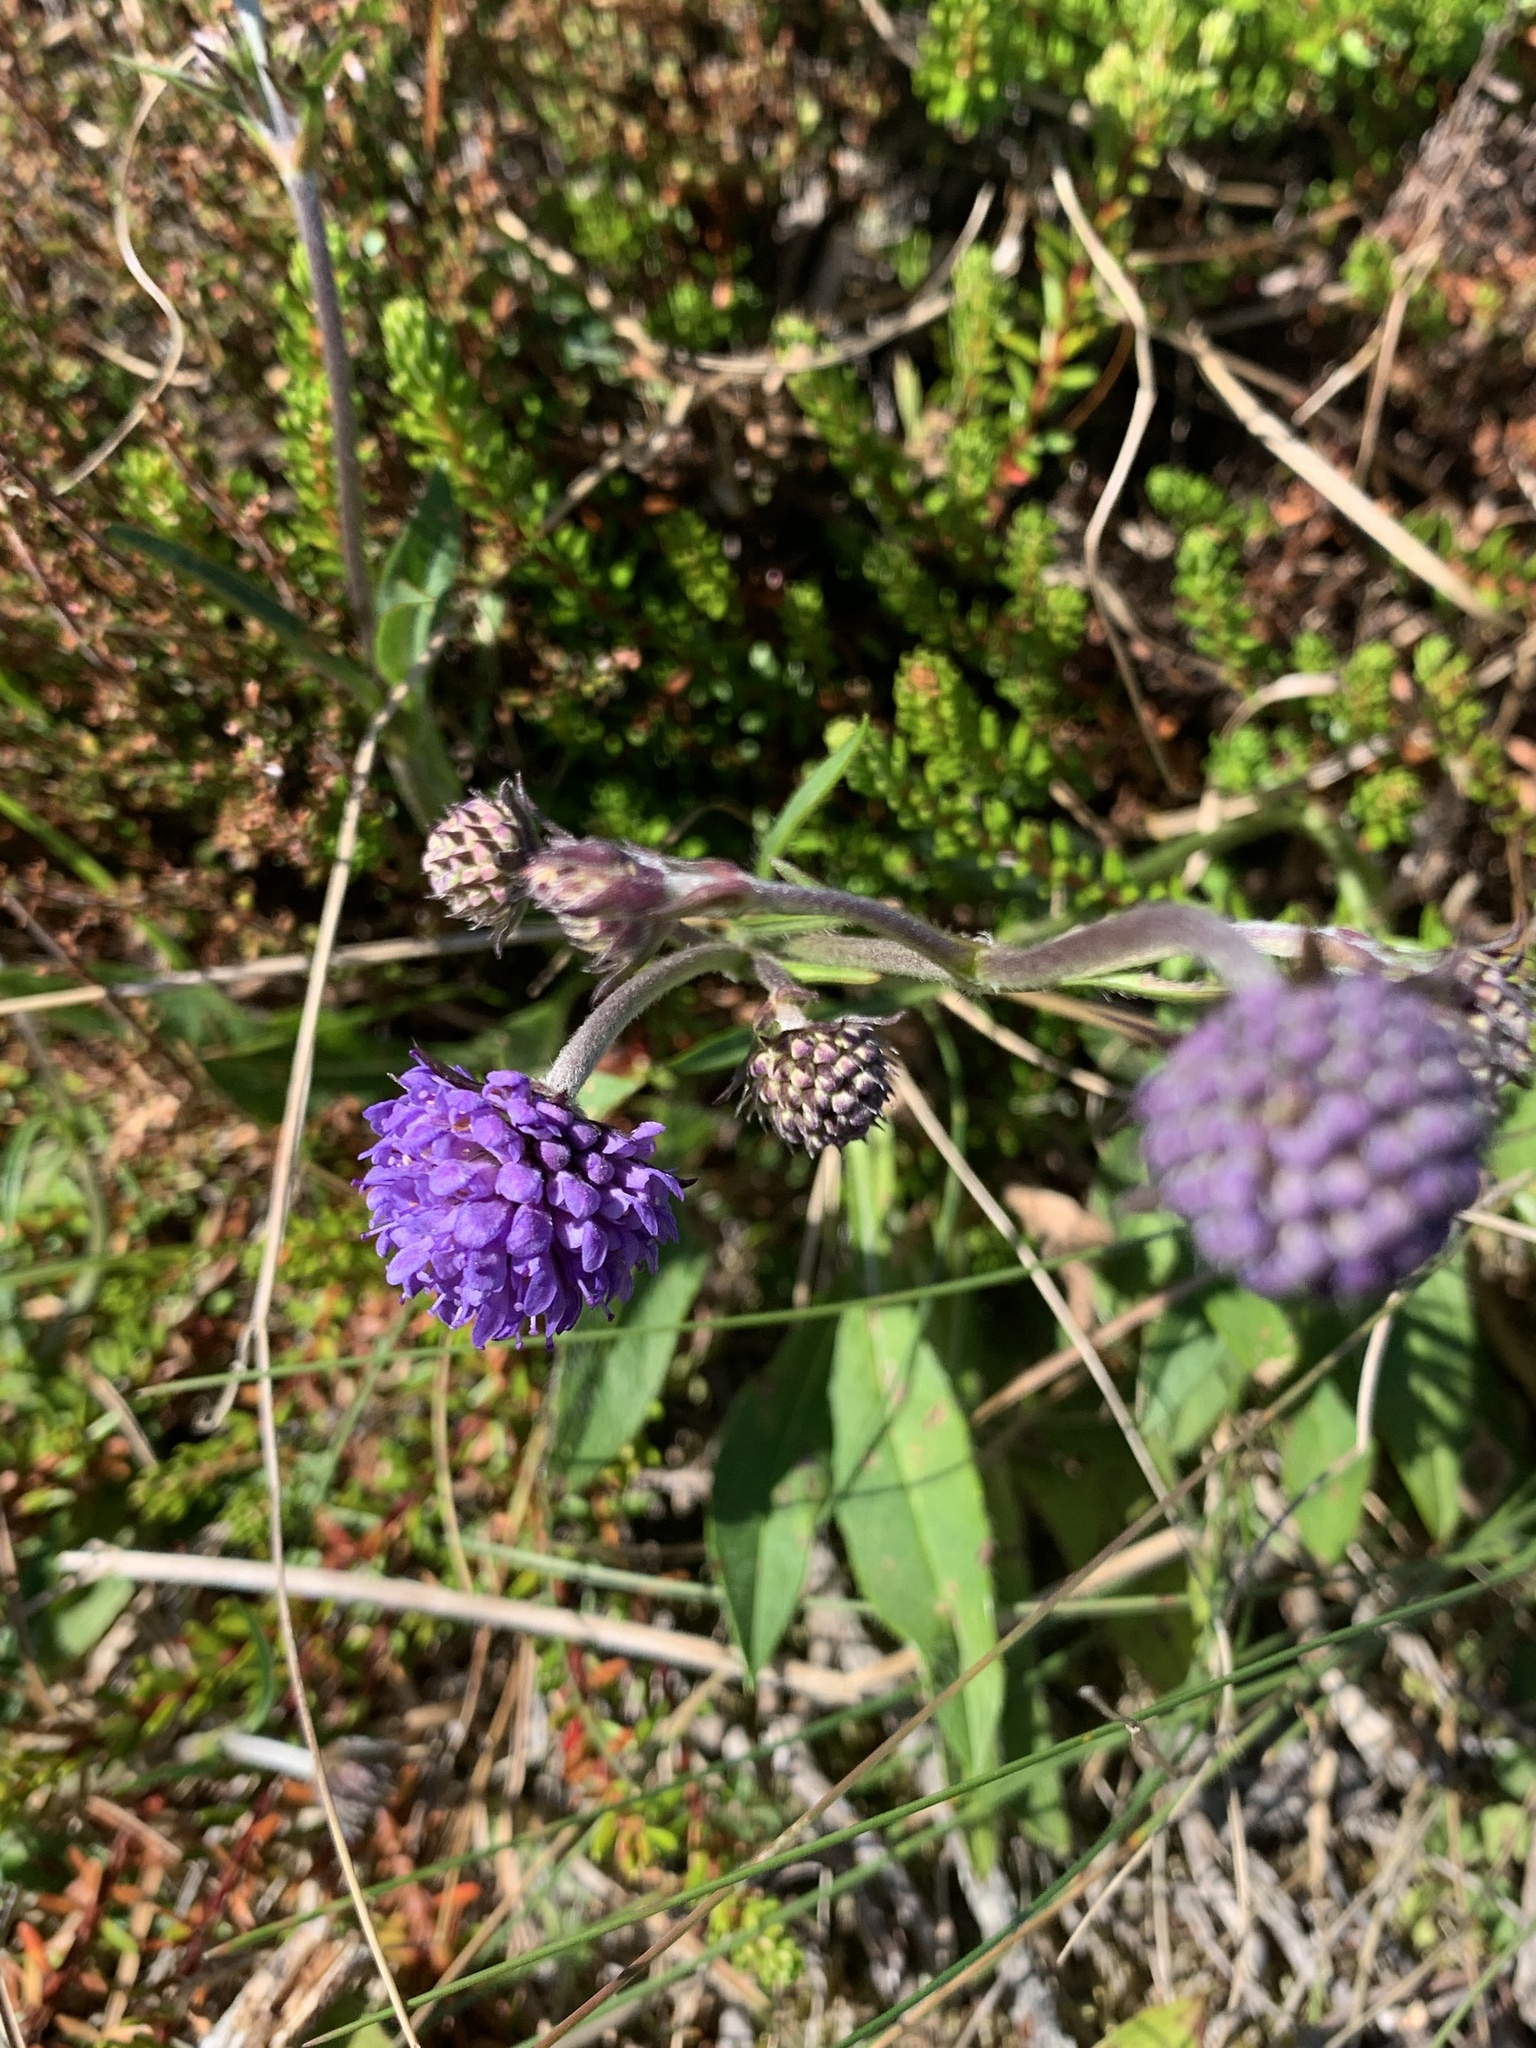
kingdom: Plantae
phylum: Tracheophyta
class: Magnoliopsida
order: Dipsacales
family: Caprifoliaceae
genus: Succisa
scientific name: Succisa pratensis
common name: Devil's-bit
